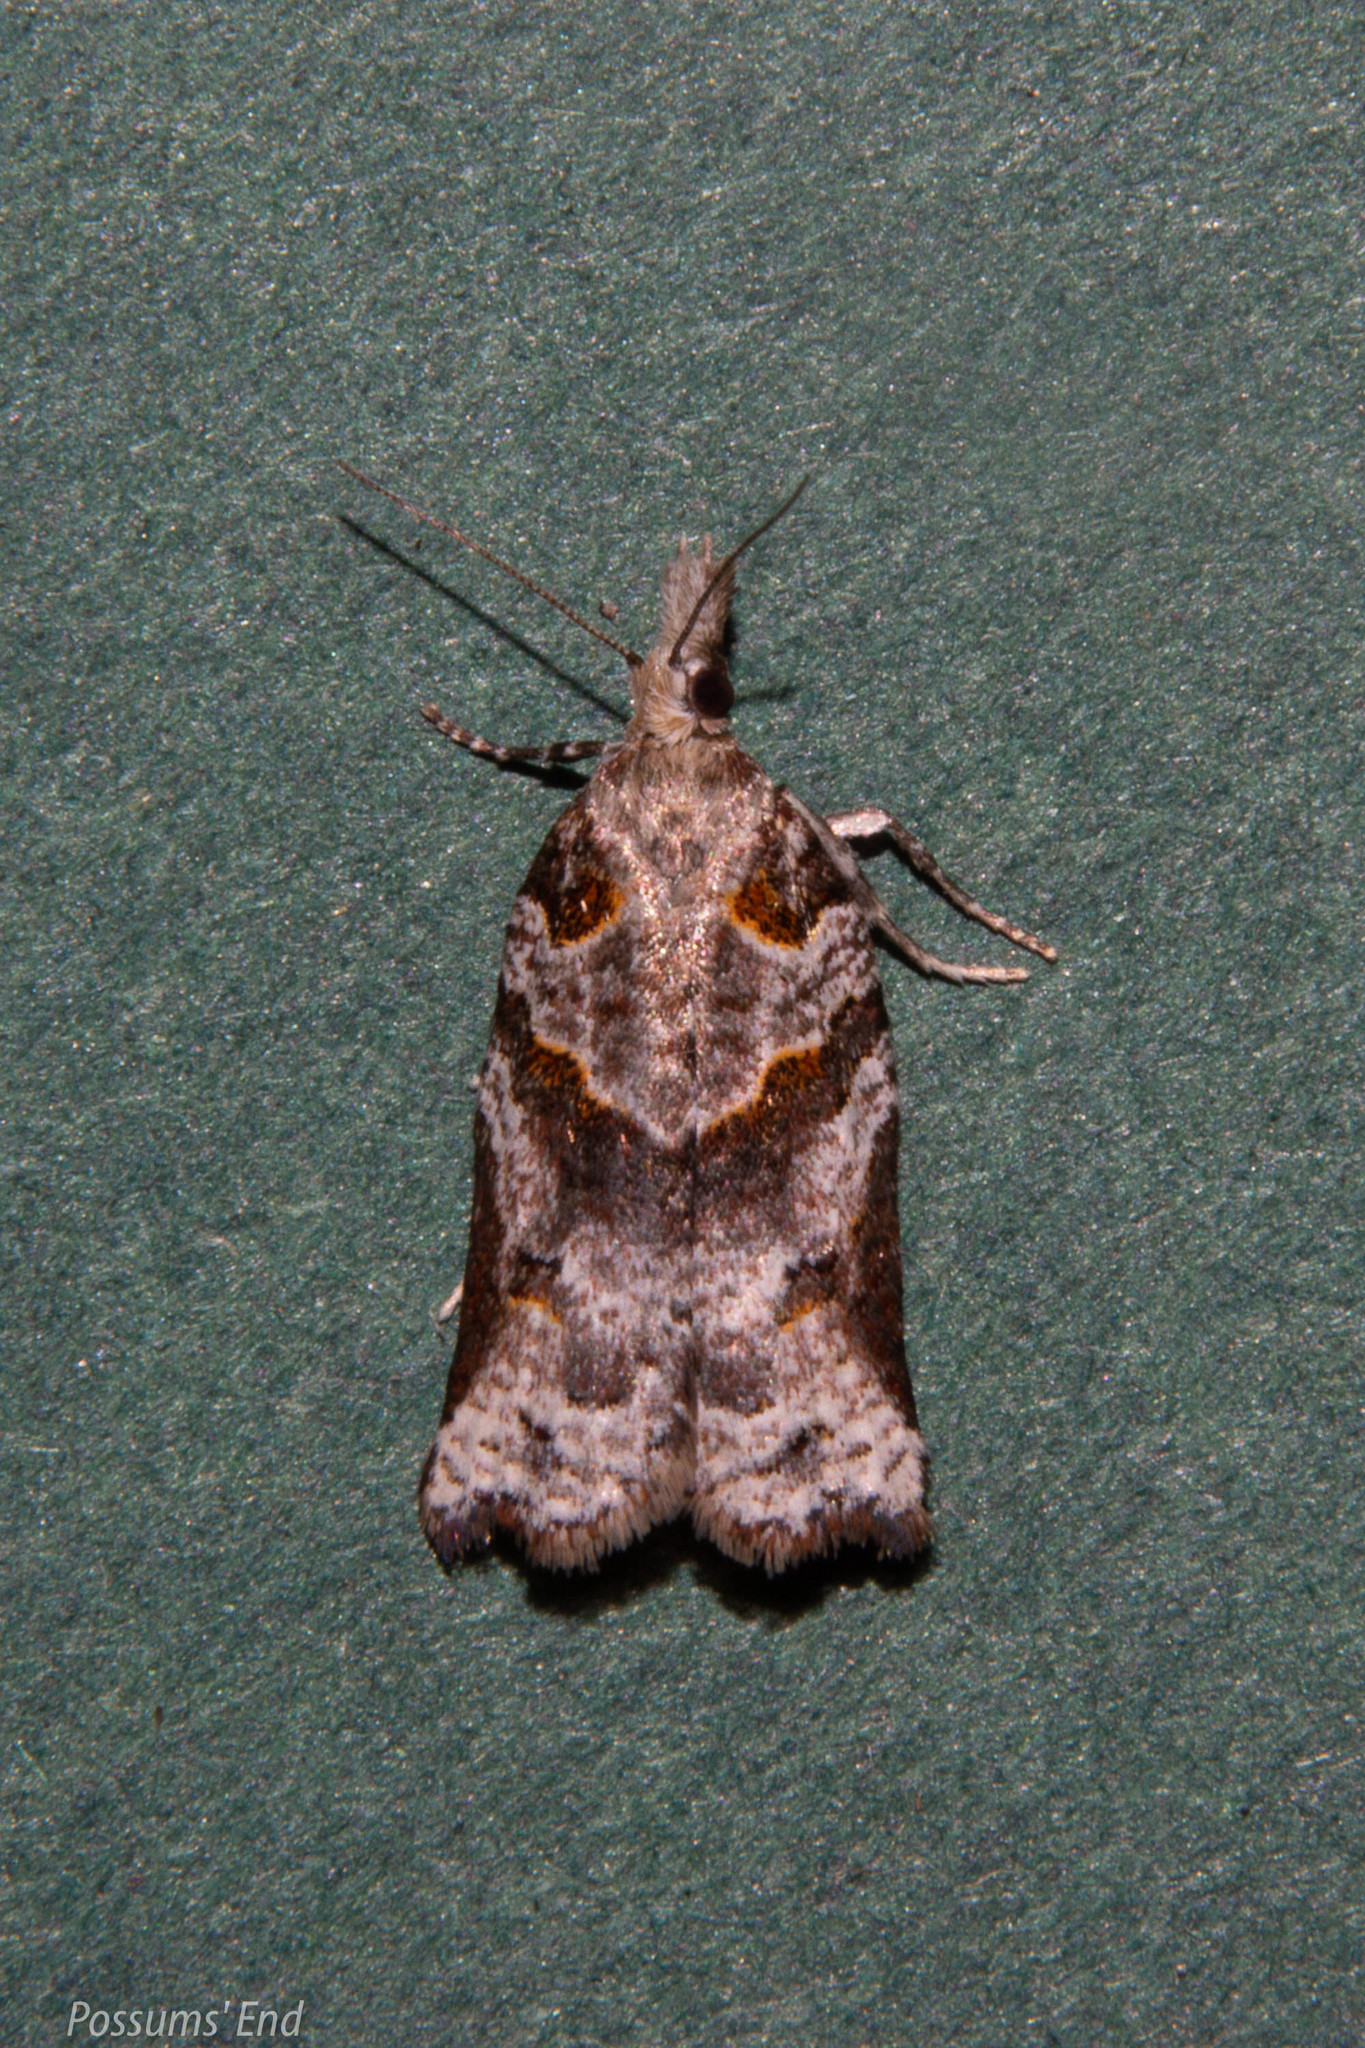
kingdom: Animalia
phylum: Arthropoda
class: Insecta
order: Lepidoptera
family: Tortricidae
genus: Harmologa
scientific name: Harmologa amplexana
